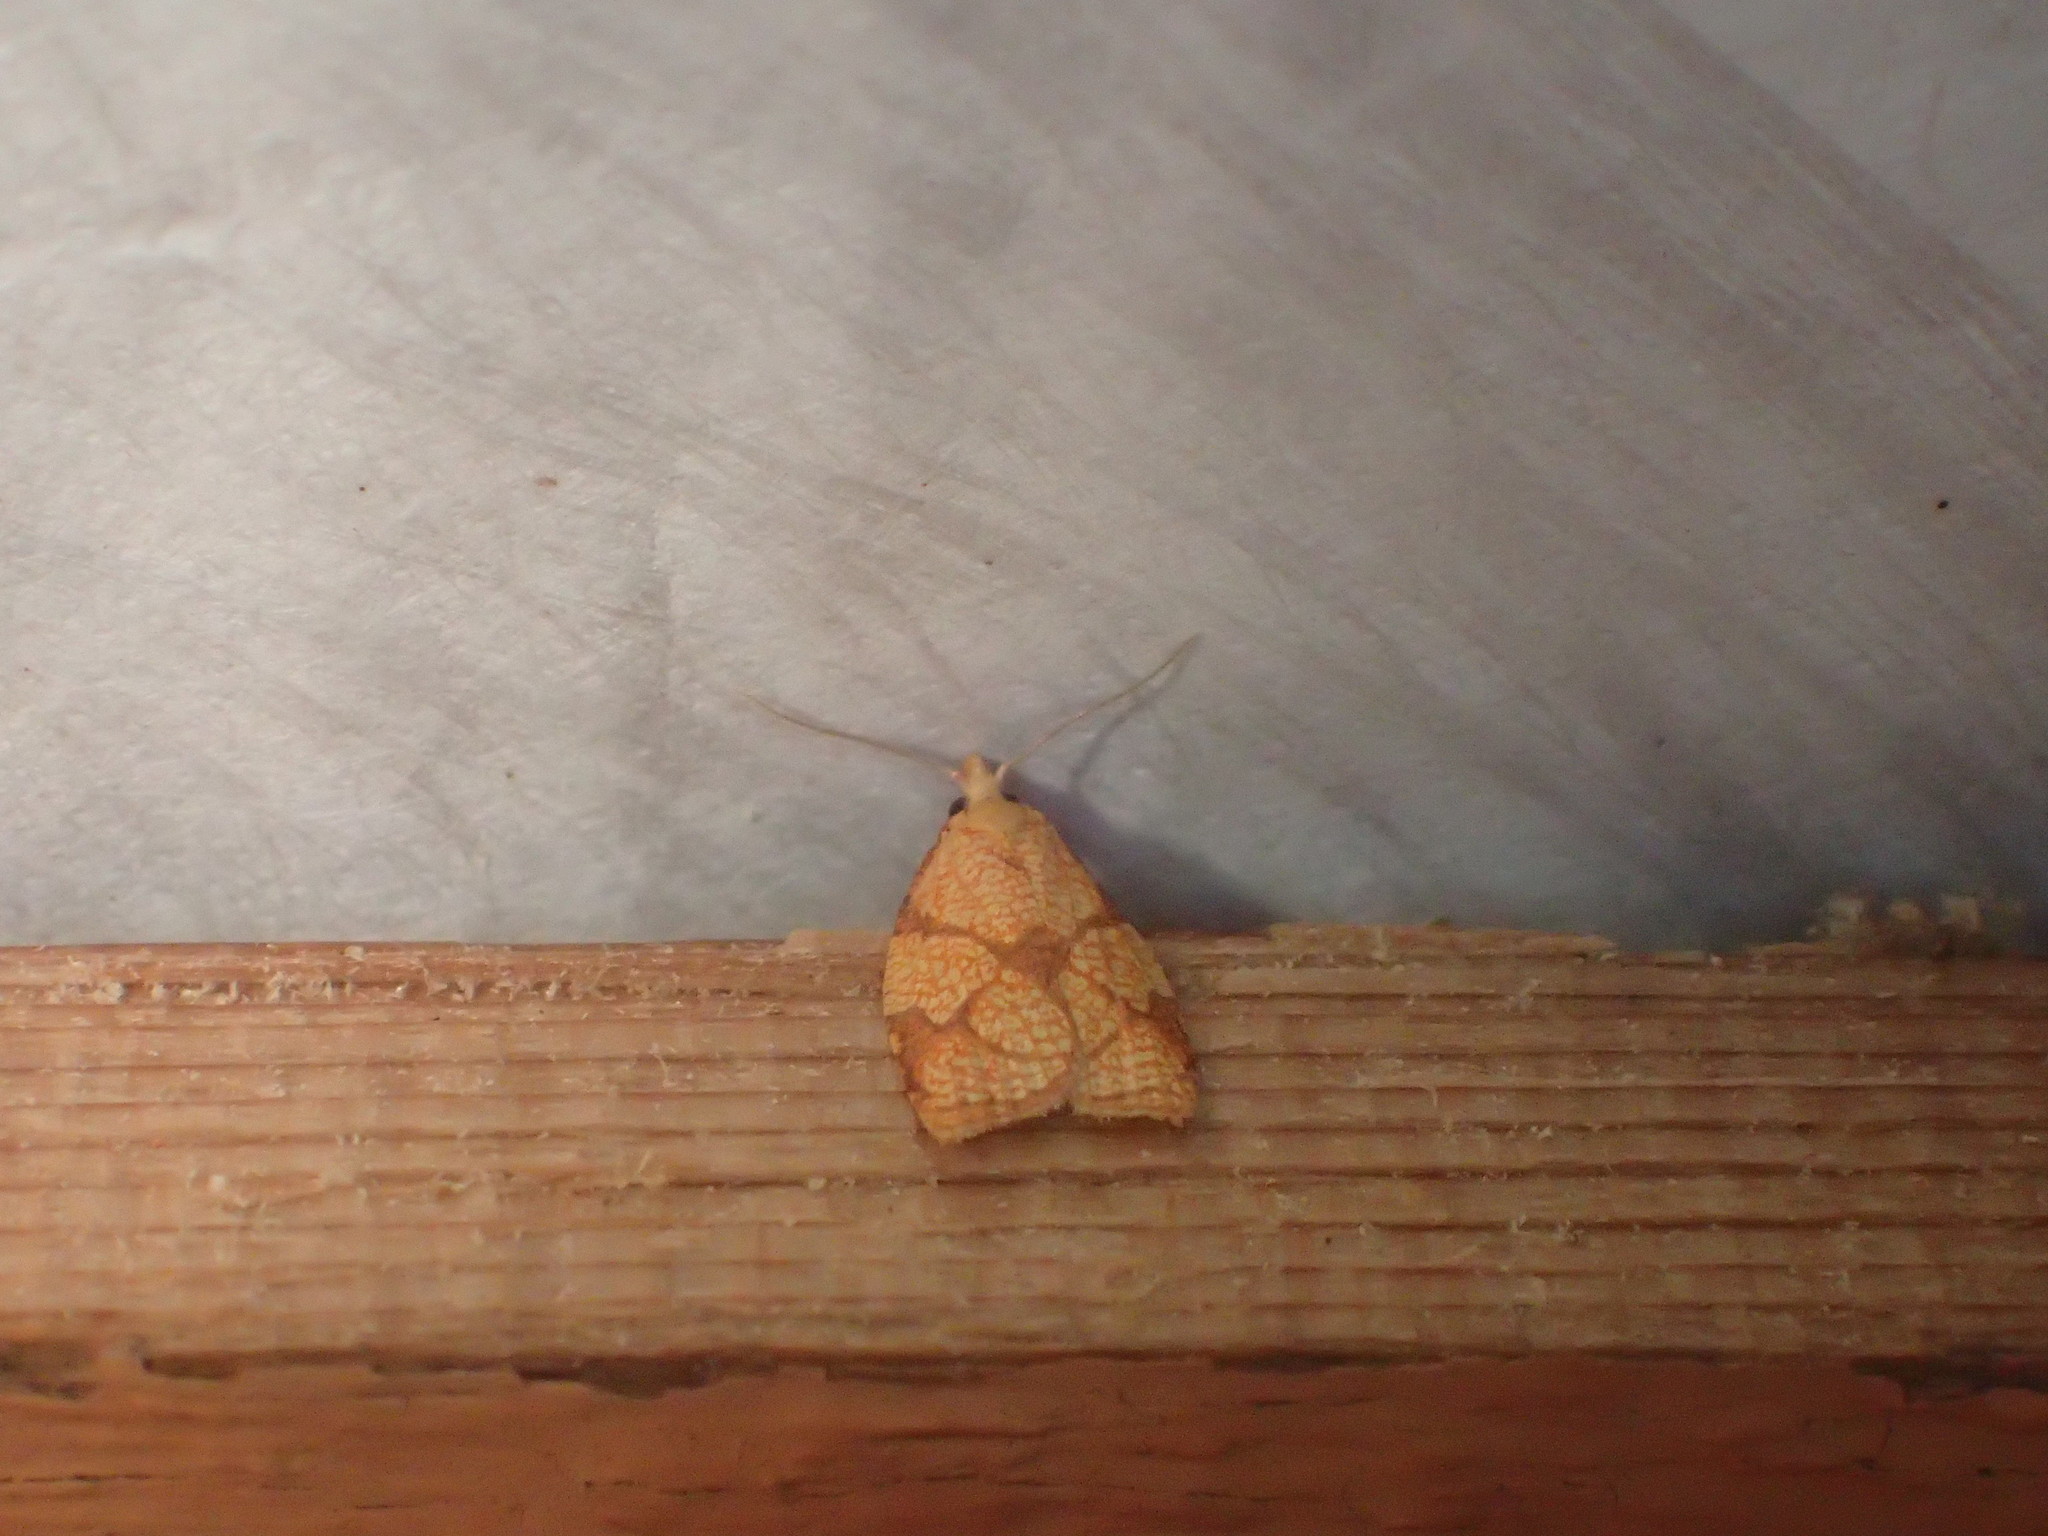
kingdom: Animalia
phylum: Arthropoda
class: Insecta
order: Lepidoptera
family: Tortricidae
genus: Cenopis
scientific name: Cenopis reticulatana
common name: Reticulated fruitworm moth
